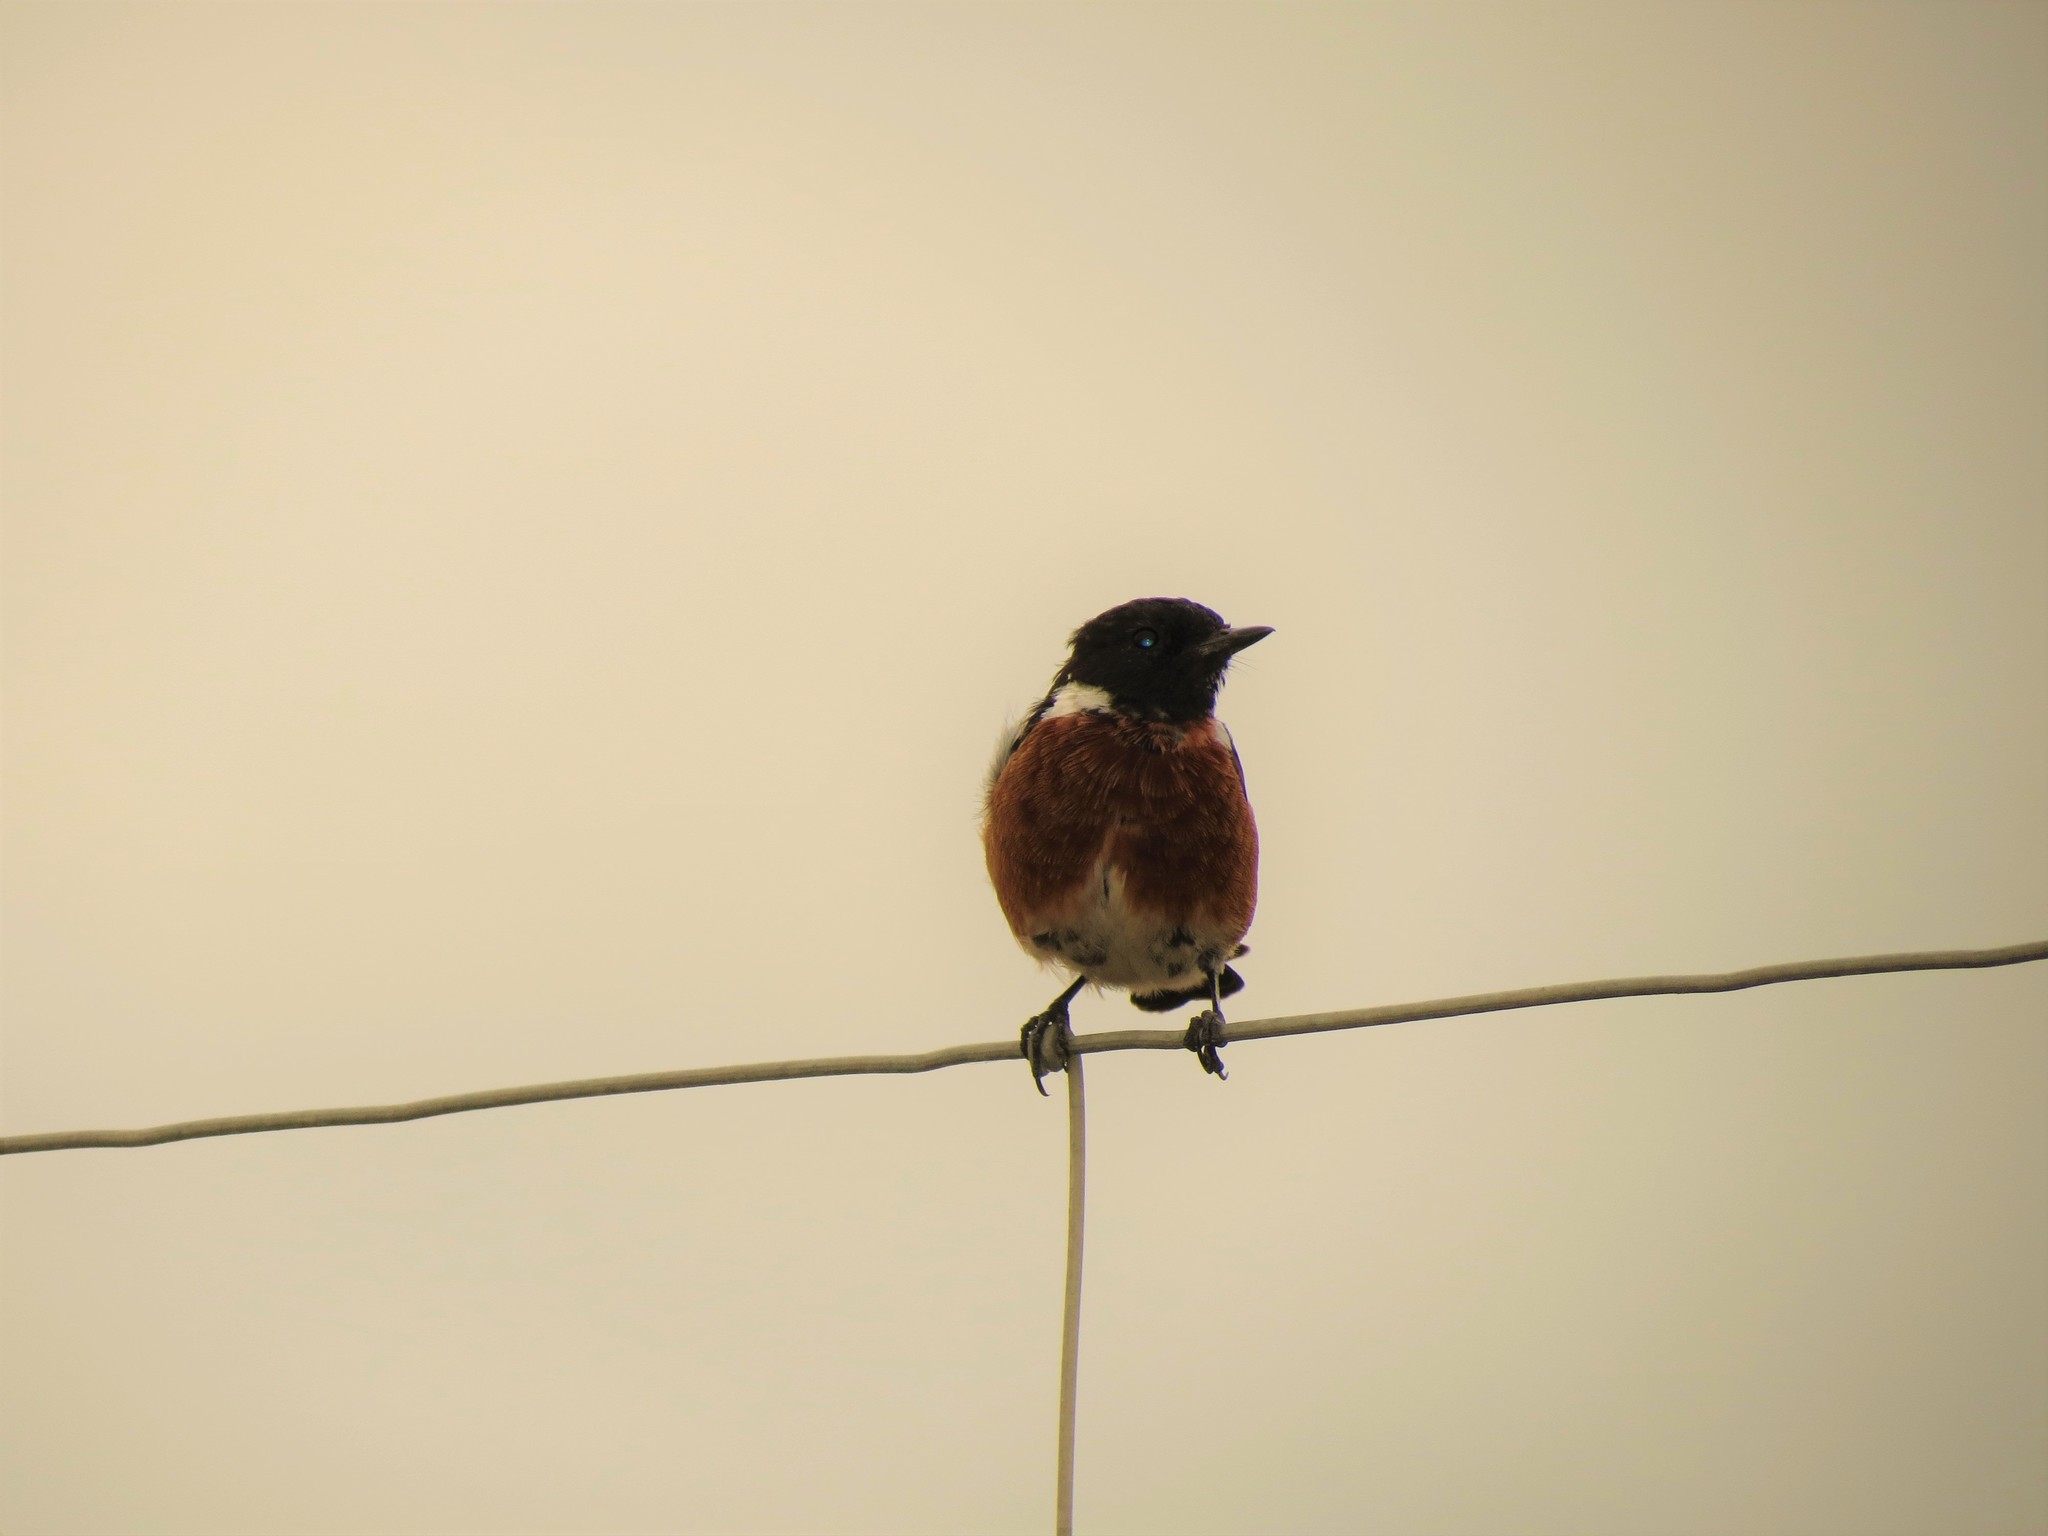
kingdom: Animalia
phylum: Chordata
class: Aves
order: Passeriformes
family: Muscicapidae
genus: Saxicola
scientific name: Saxicola torquatus
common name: African stonechat
